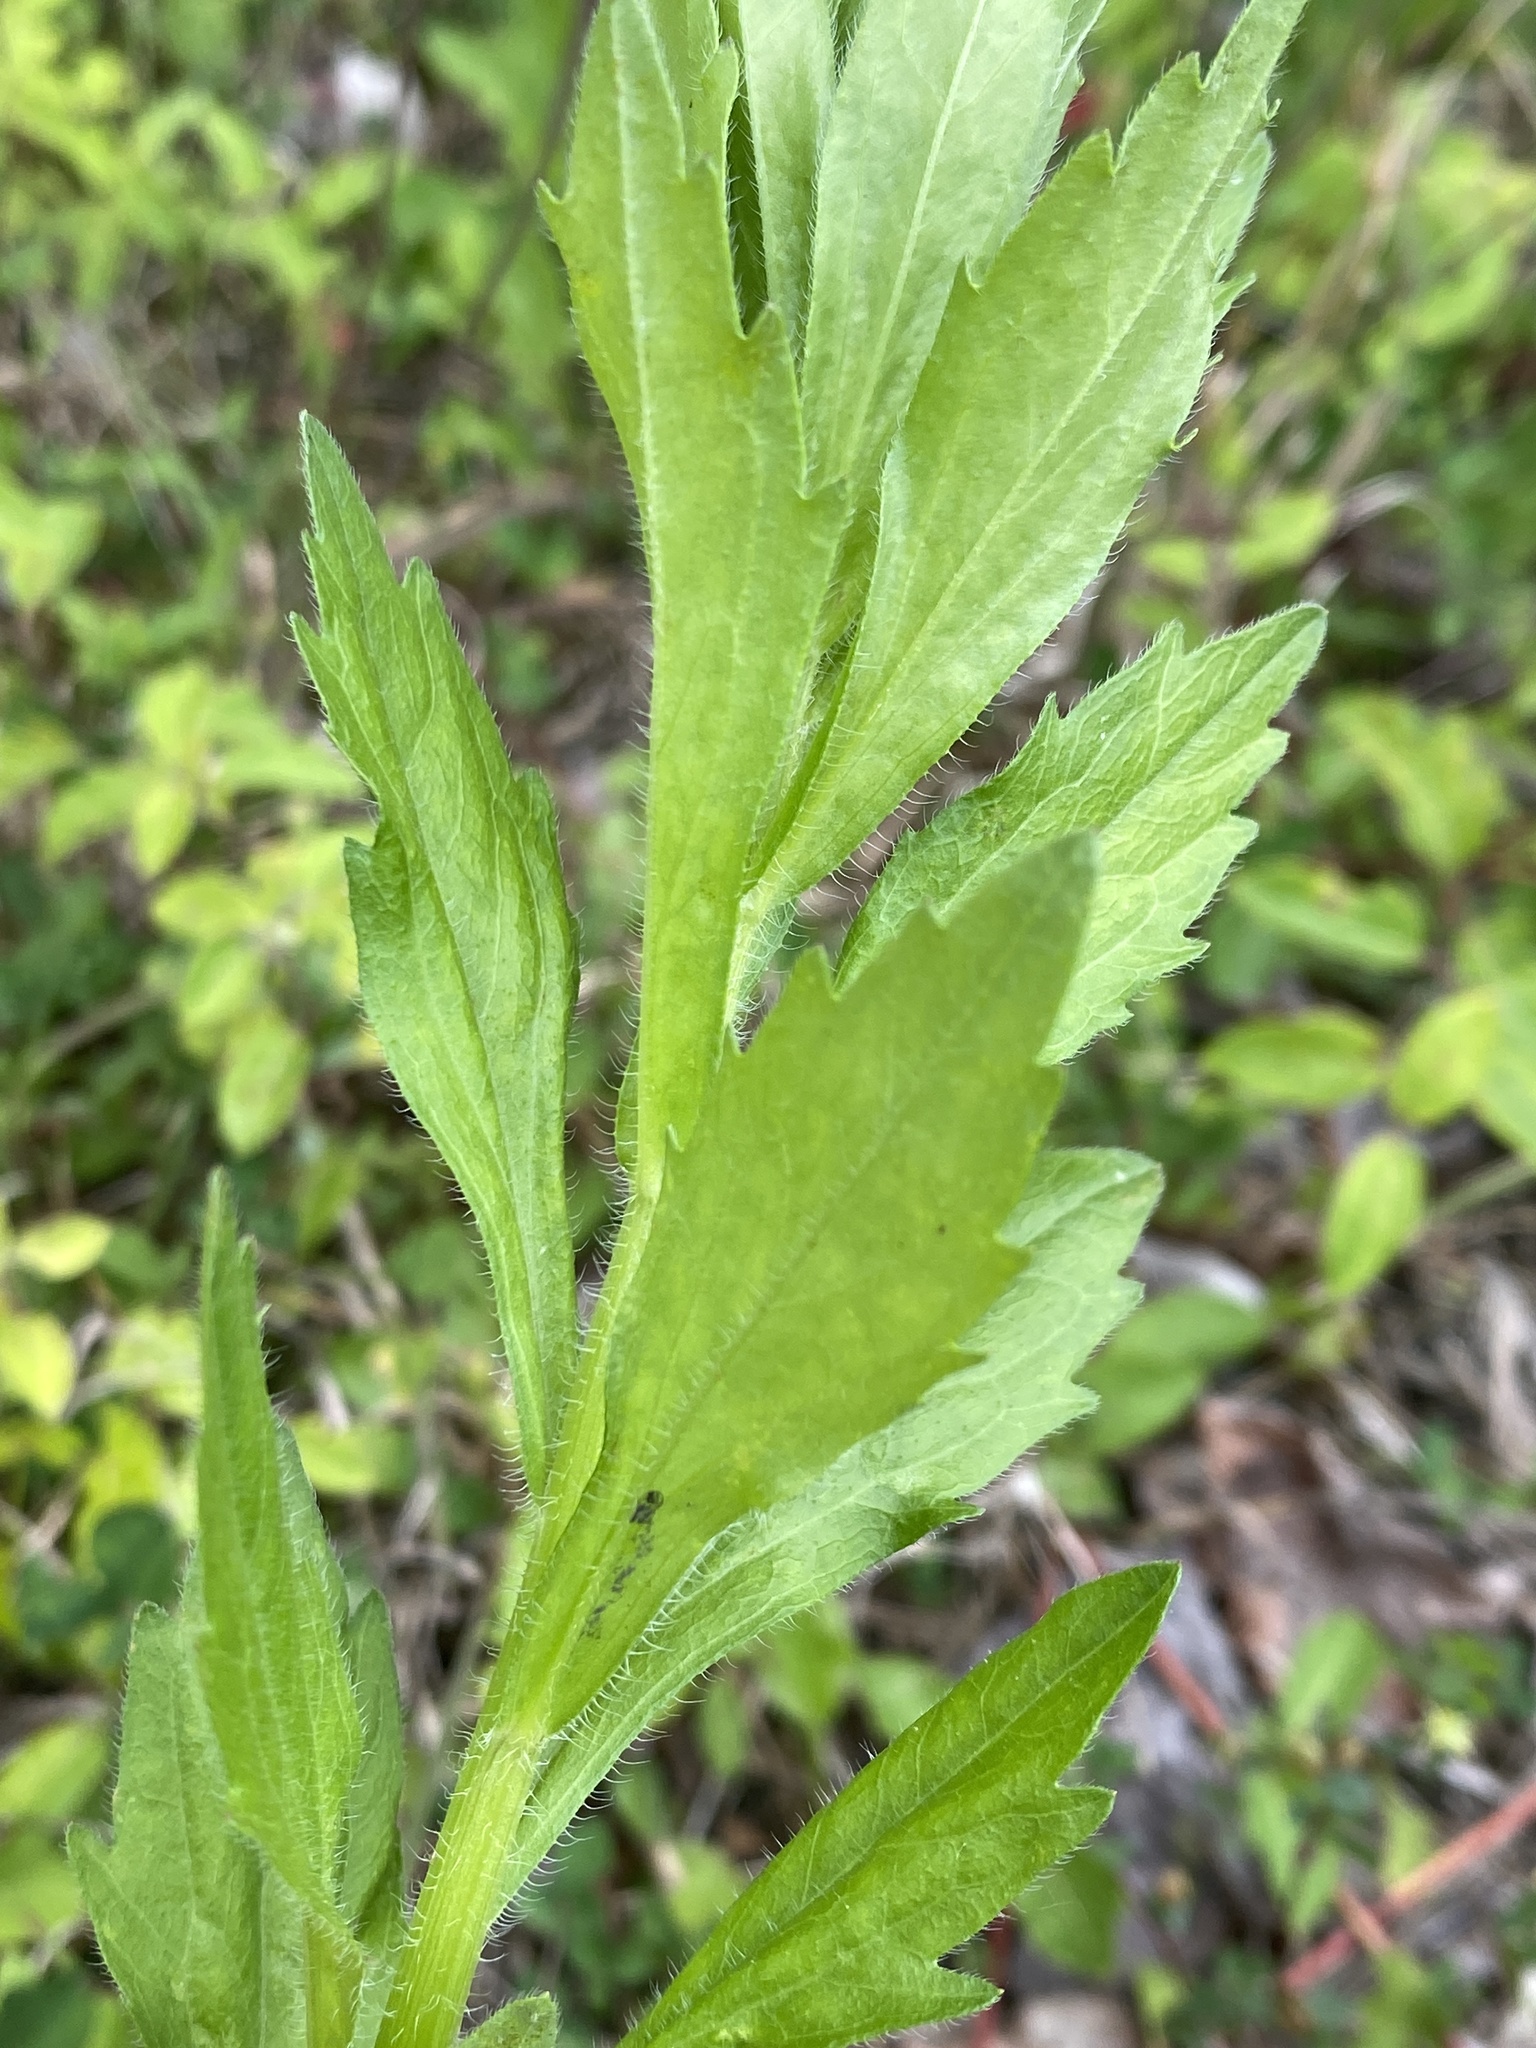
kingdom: Plantae
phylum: Tracheophyta
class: Magnoliopsida
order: Asterales
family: Asteraceae
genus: Erigeron
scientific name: Erigeron annuus
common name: Tall fleabane
